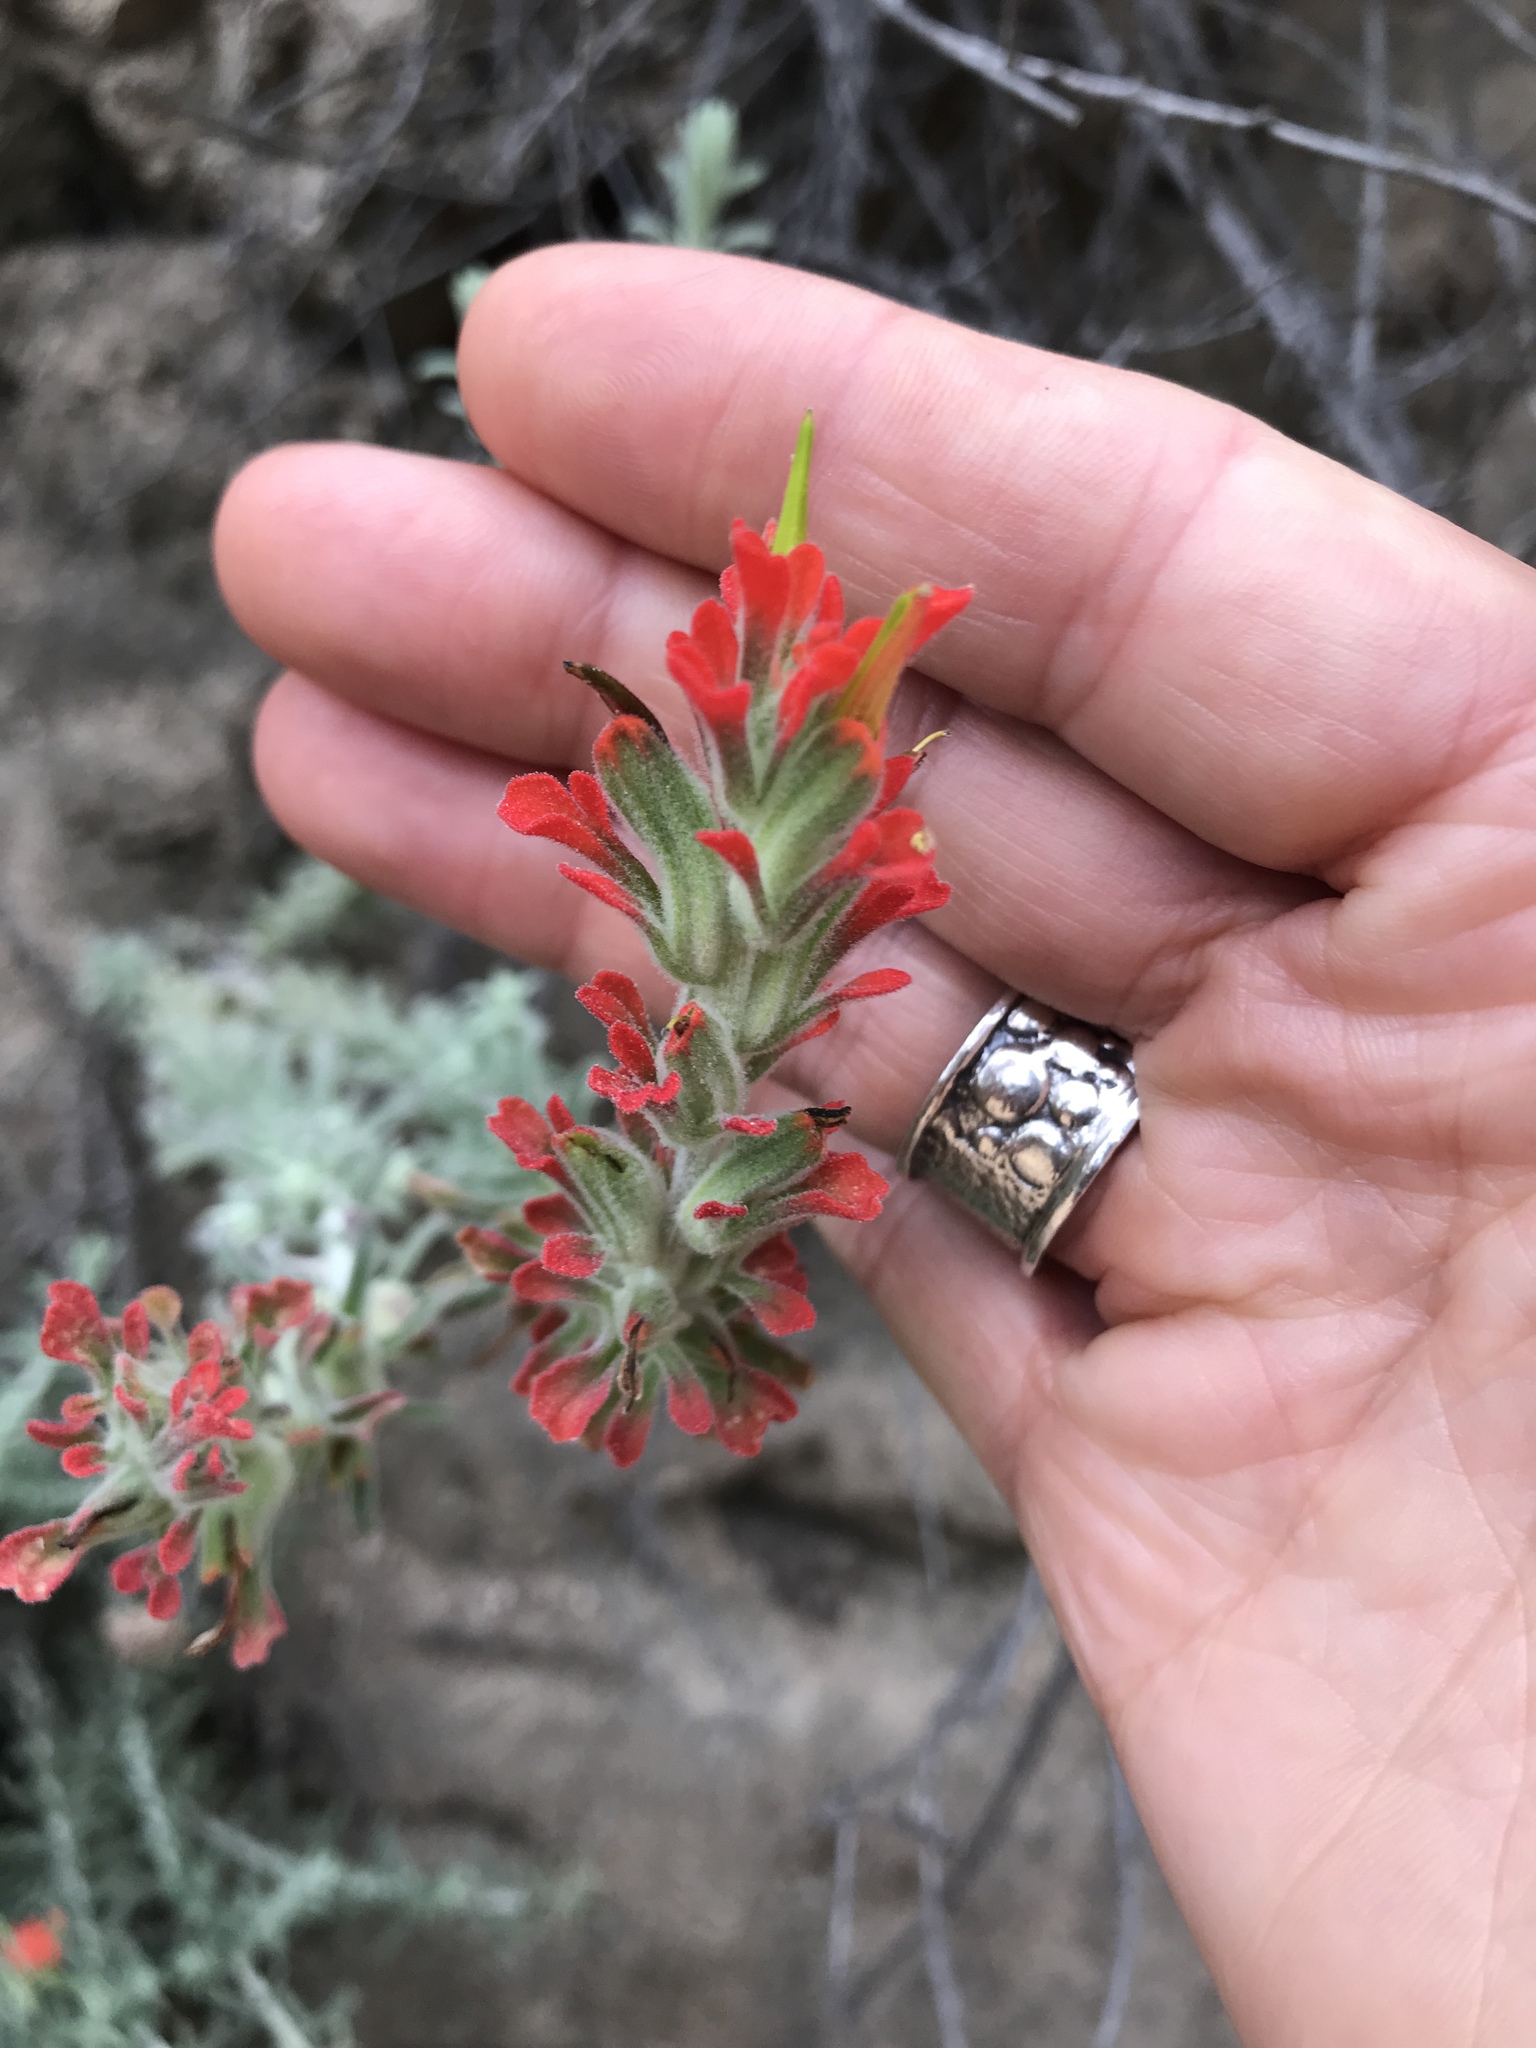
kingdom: Plantae
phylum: Tracheophyta
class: Magnoliopsida
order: Lamiales
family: Orobanchaceae
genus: Castilleja
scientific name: Castilleja foliolosa
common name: Woolly indian paintbrush
